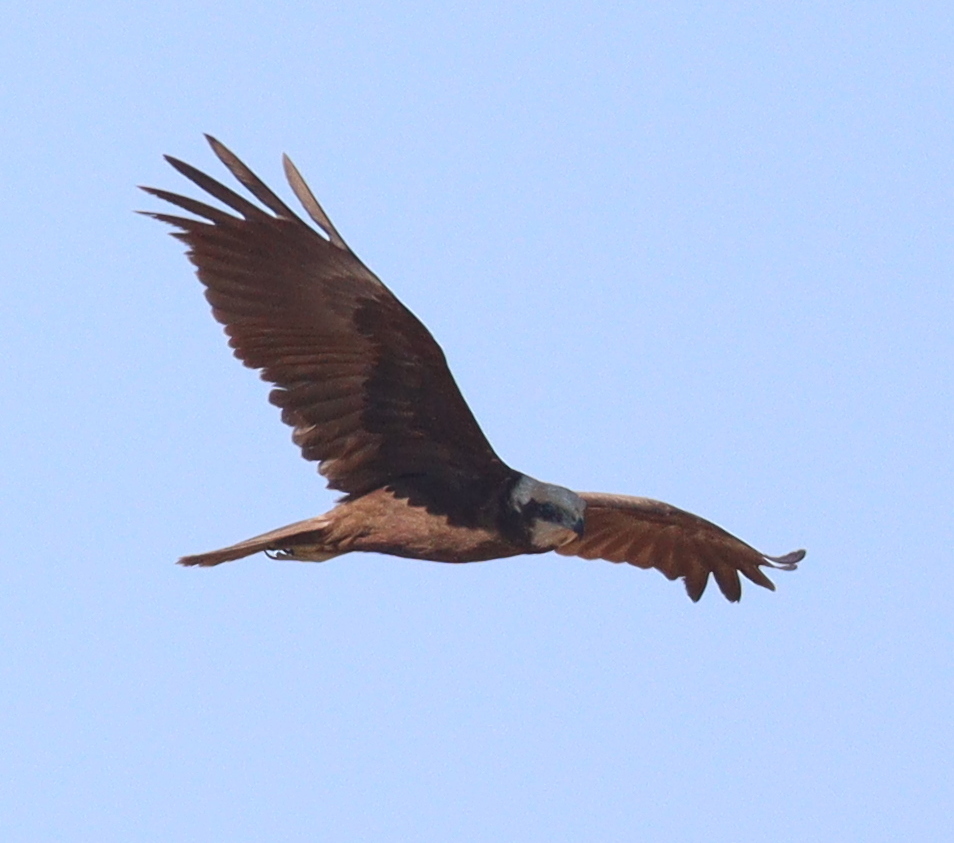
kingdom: Animalia
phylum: Chordata
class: Aves
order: Accipitriformes
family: Accipitridae
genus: Circus
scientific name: Circus aeruginosus
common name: Western marsh harrier
